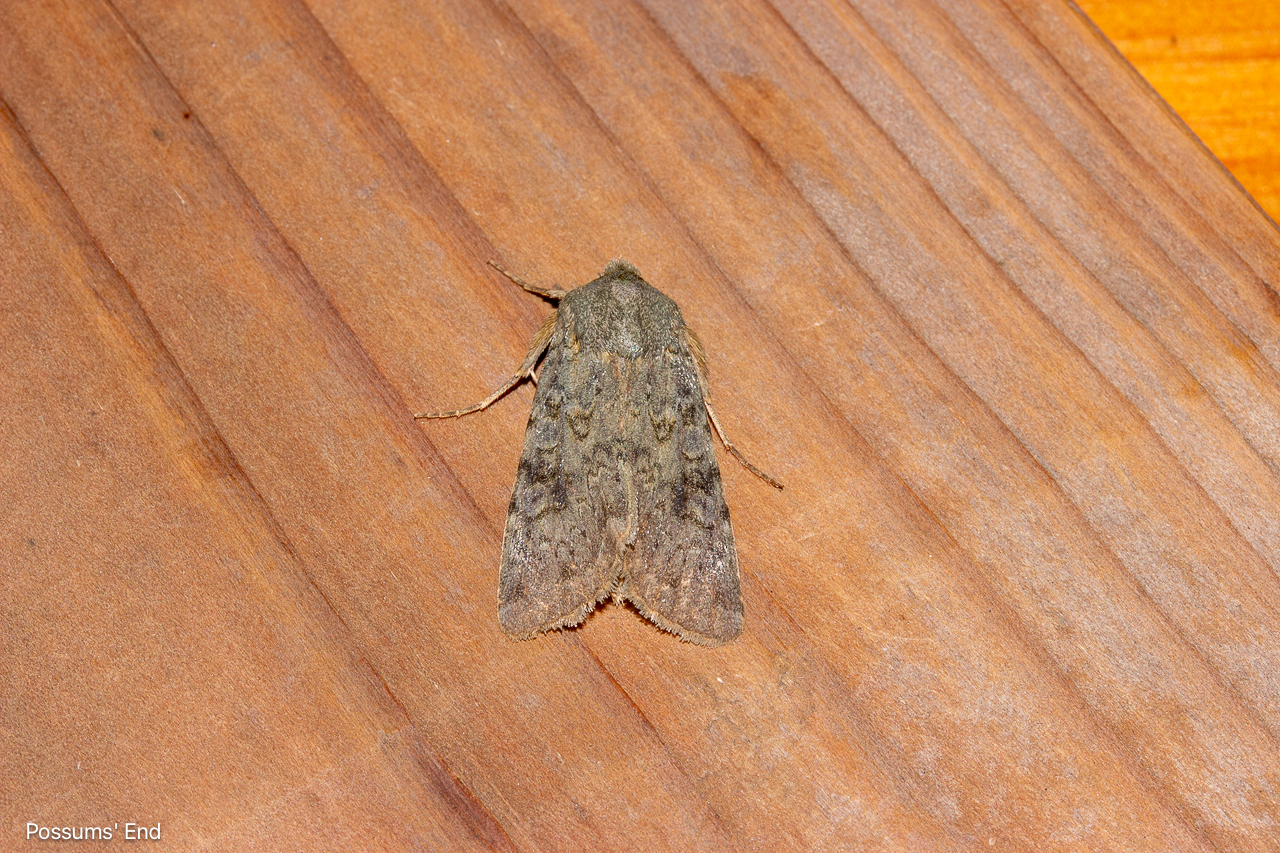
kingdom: Animalia
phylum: Arthropoda
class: Insecta
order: Lepidoptera
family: Noctuidae
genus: Ichneutica
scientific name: Ichneutica
